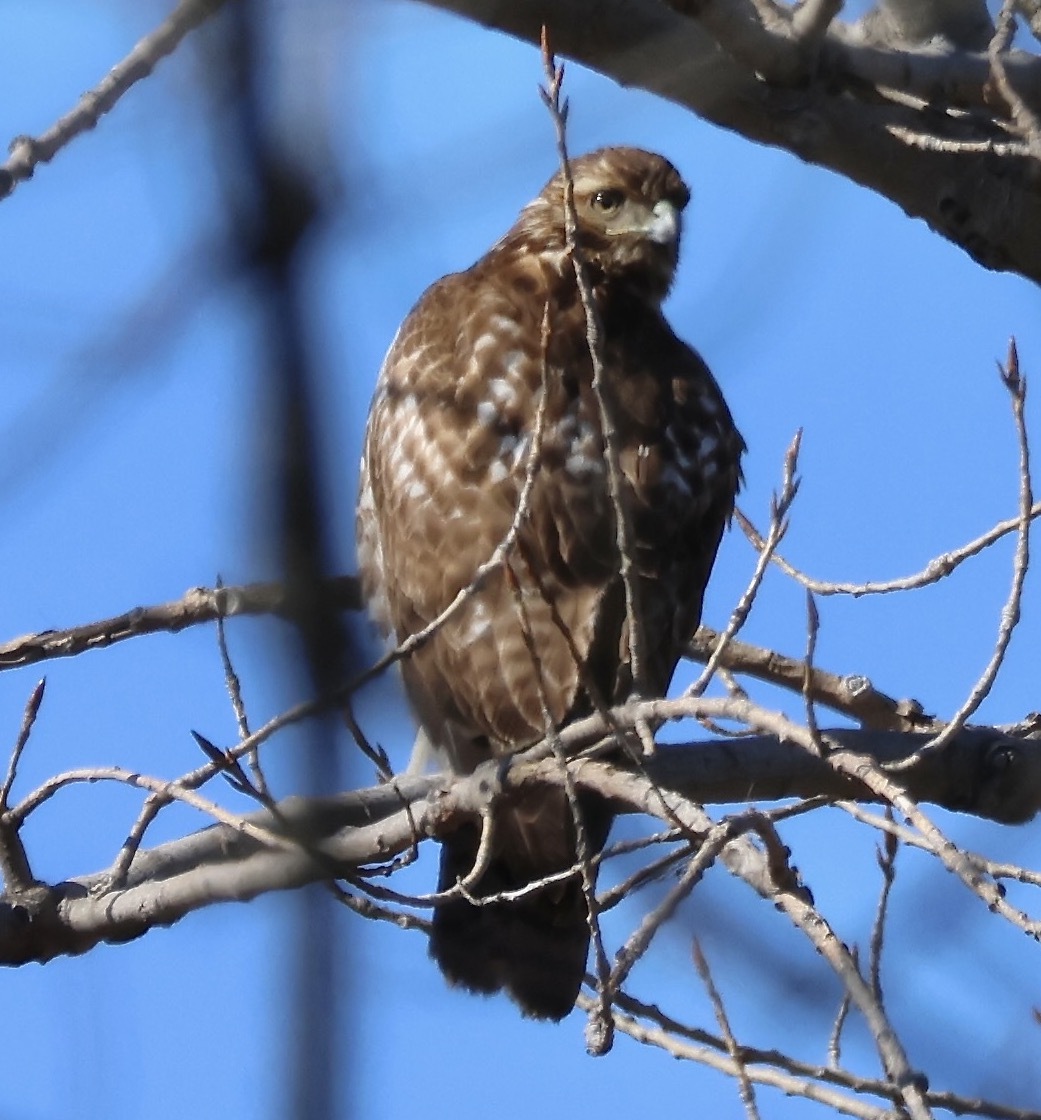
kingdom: Animalia
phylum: Chordata
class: Aves
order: Accipitriformes
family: Accipitridae
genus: Buteo
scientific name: Buteo jamaicensis
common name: Red-tailed hawk
